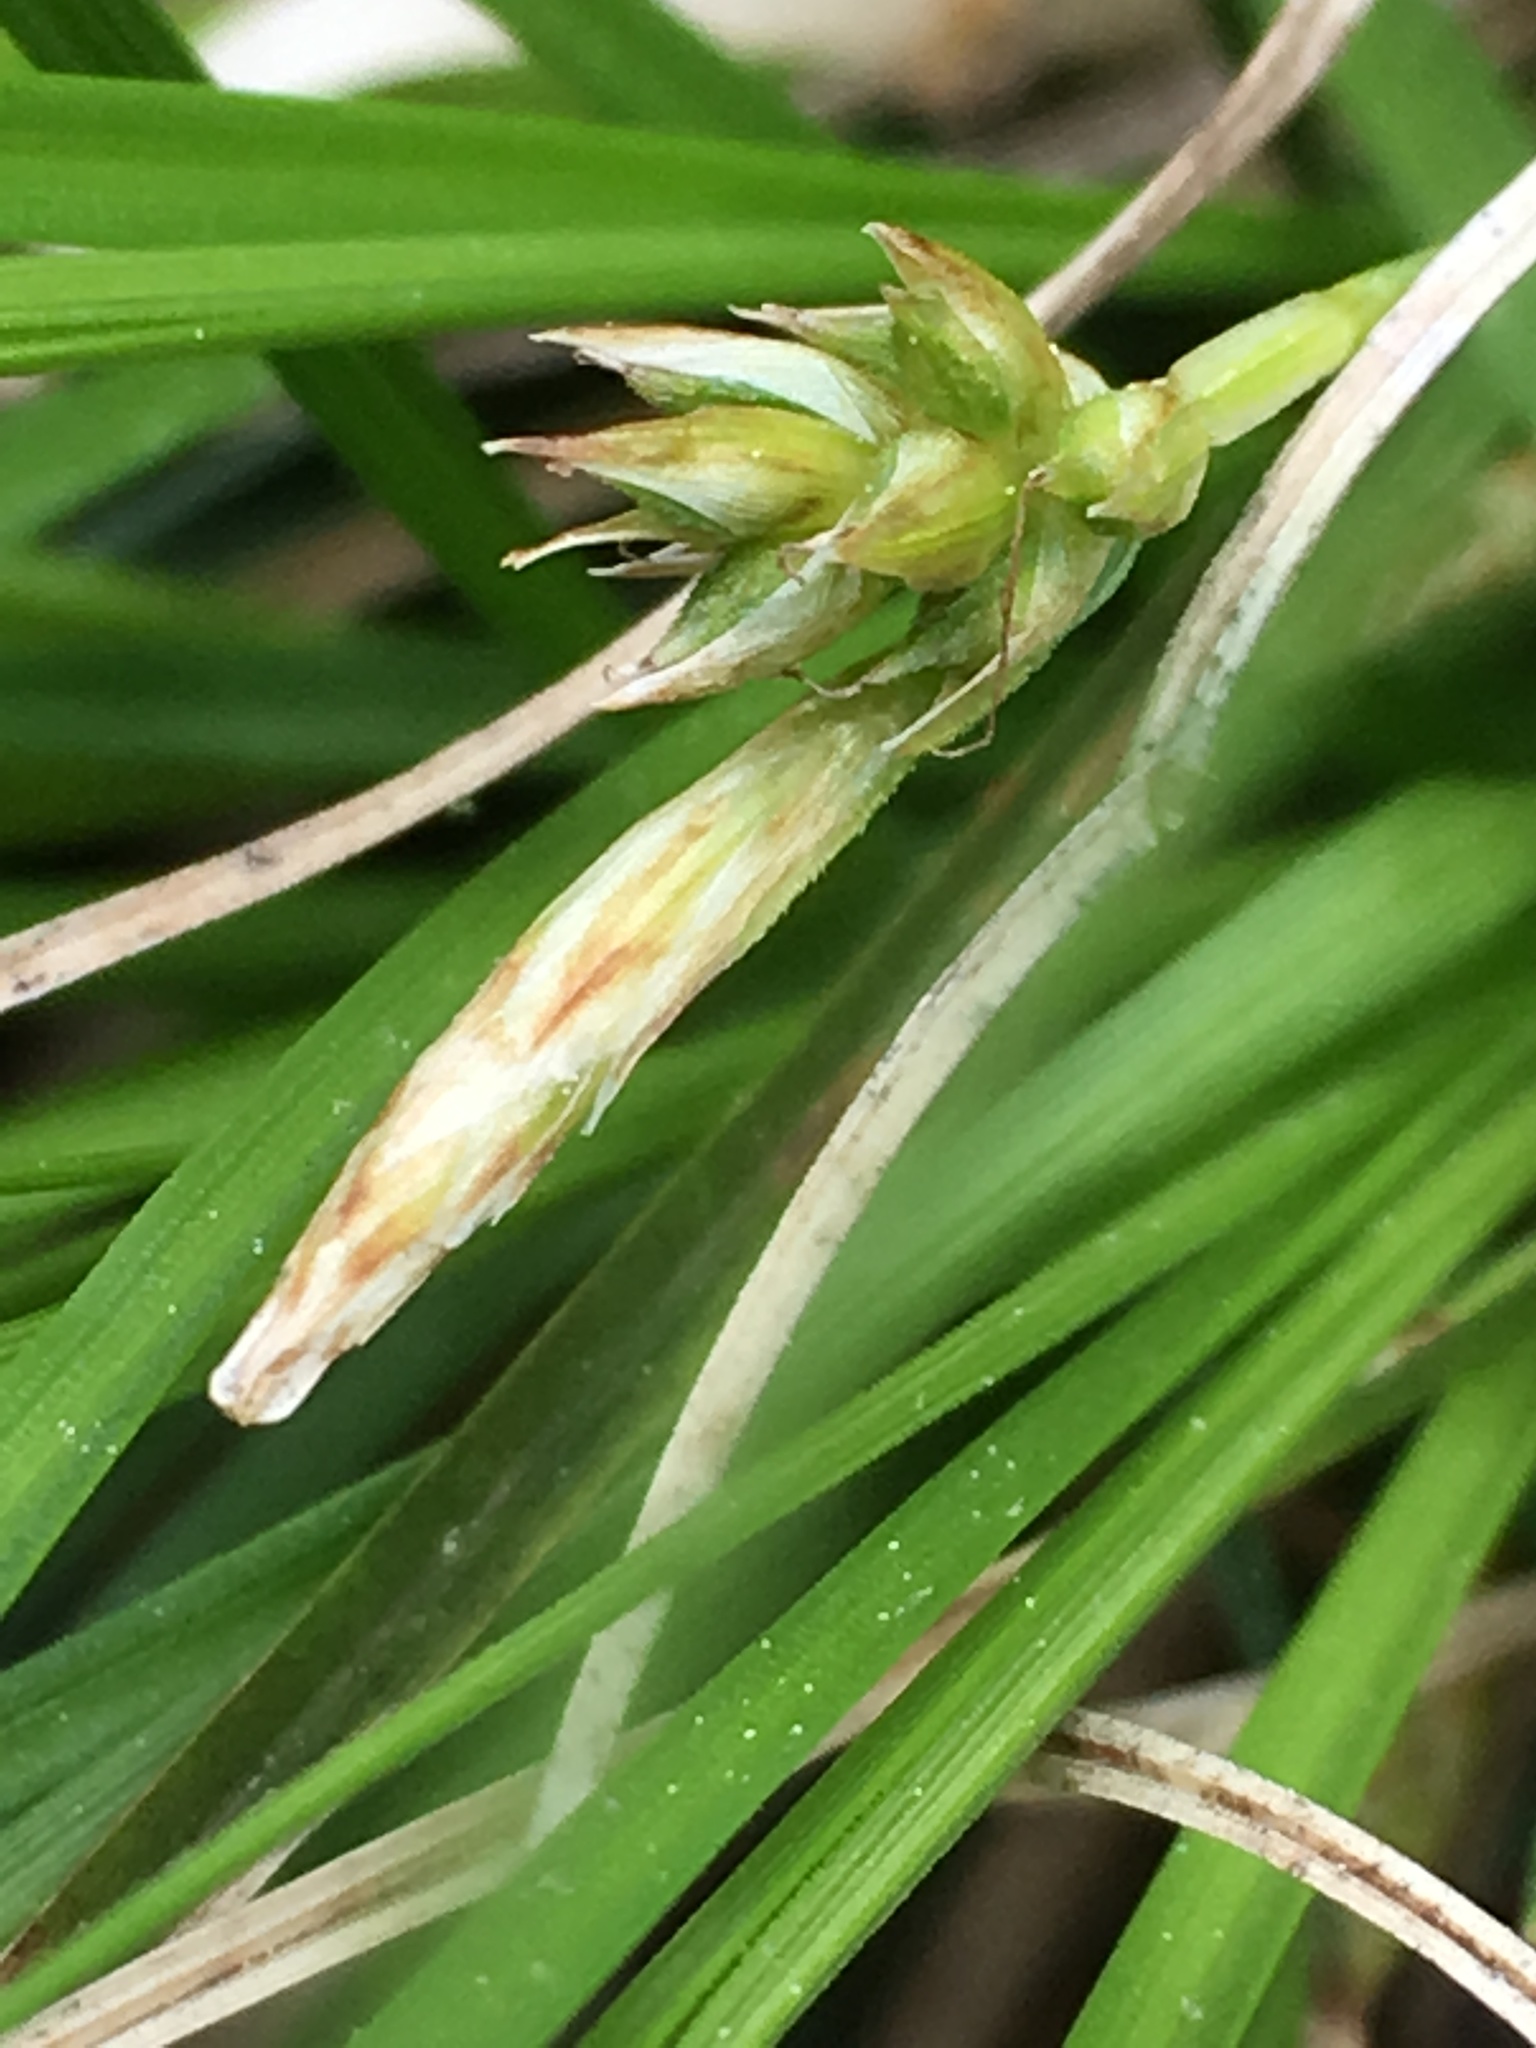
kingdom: Plantae
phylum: Tracheophyta
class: Liliopsida
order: Poales
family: Cyperaceae
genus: Carex
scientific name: Carex umbellata
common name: Early oak sedge
